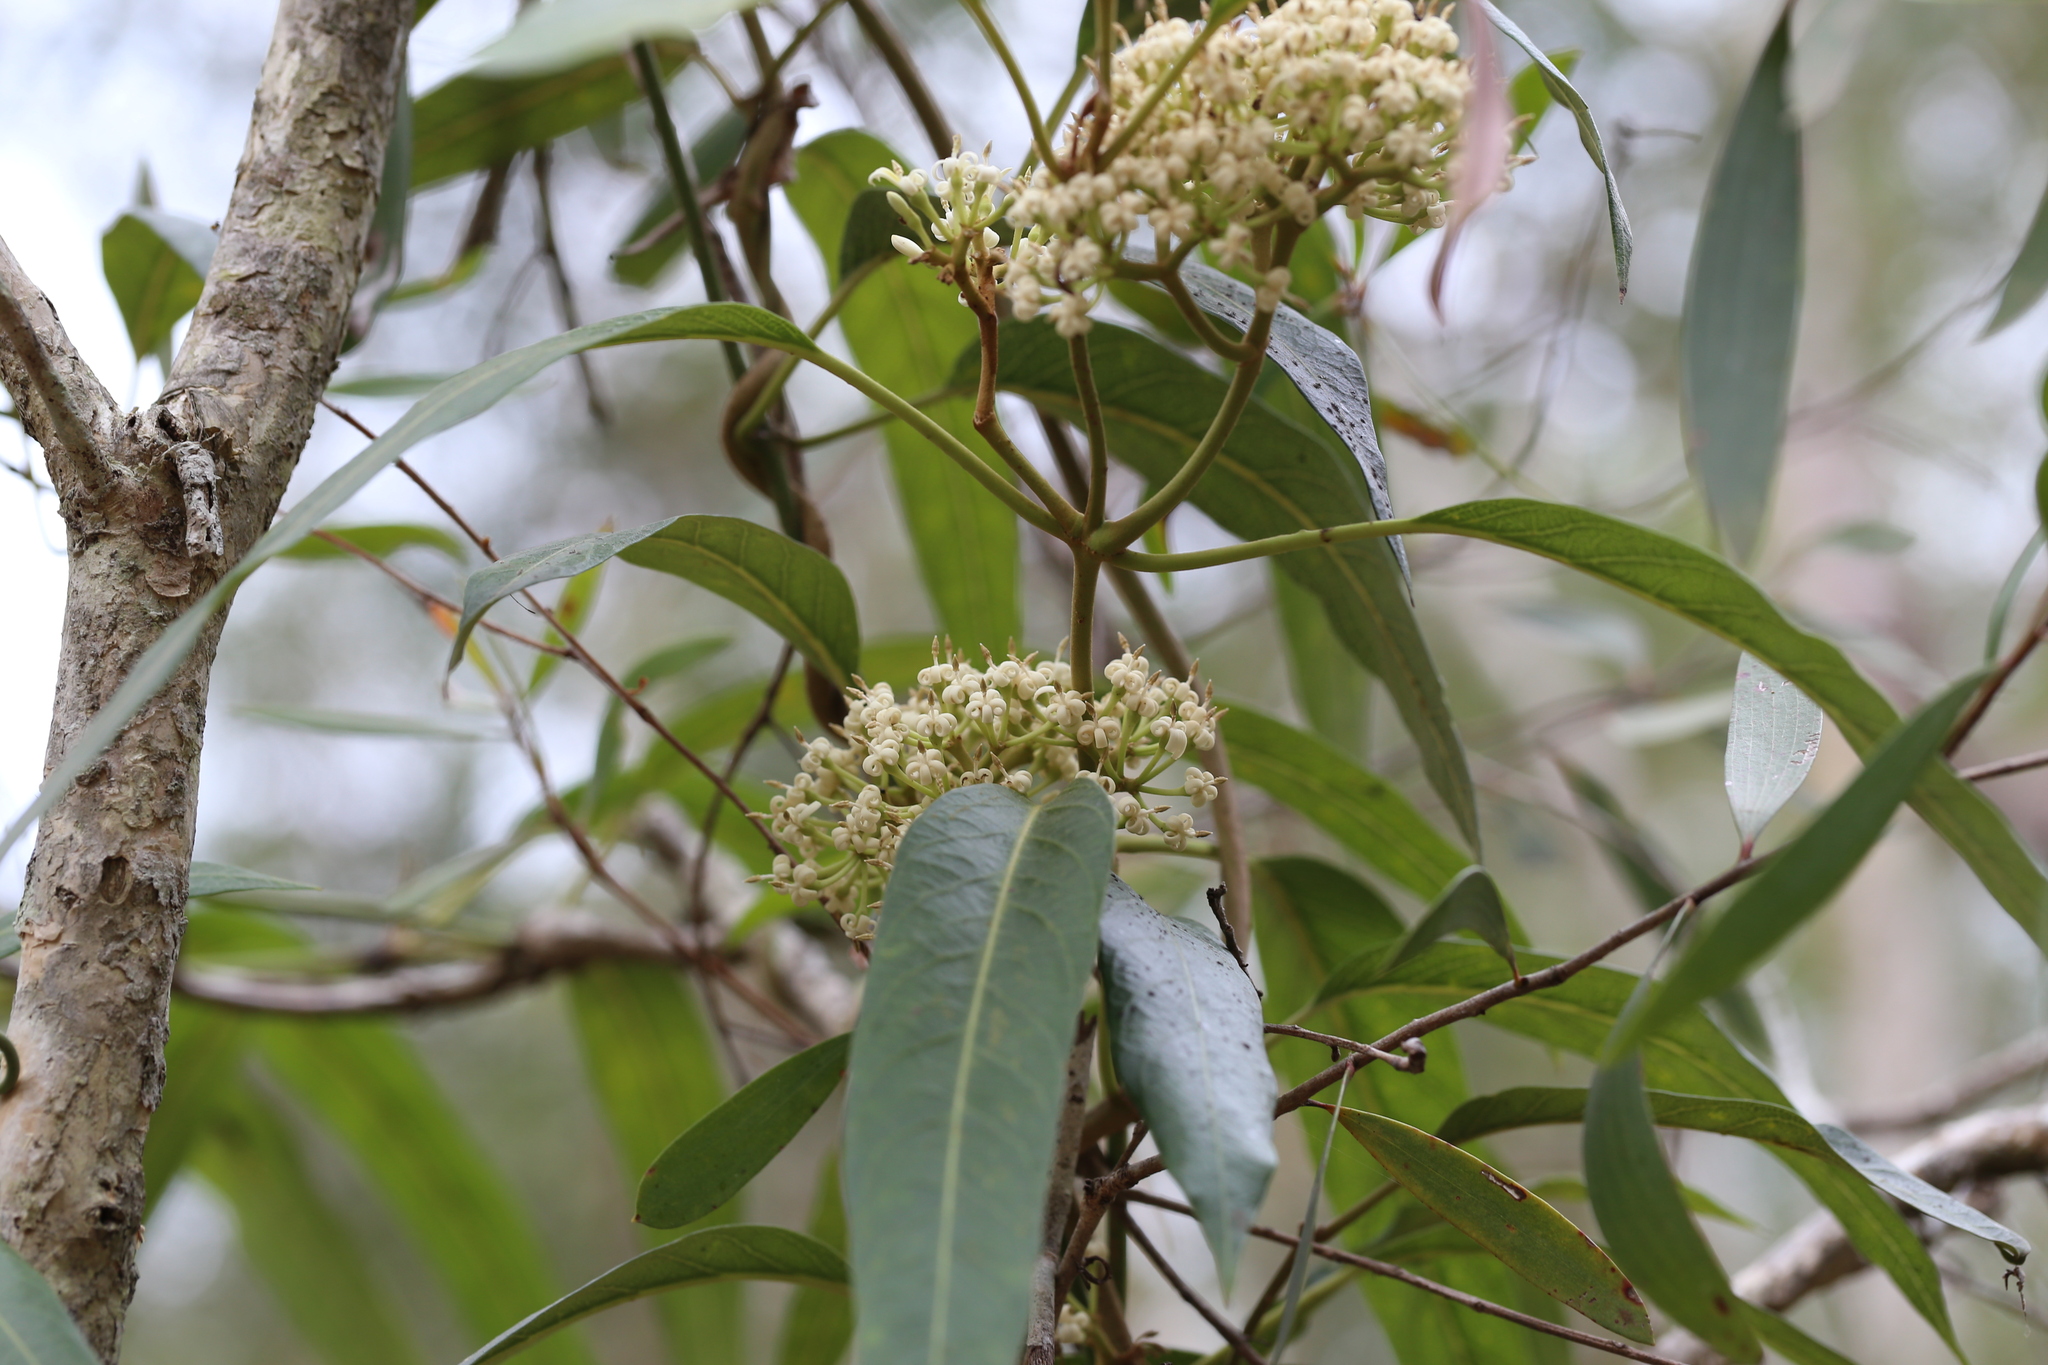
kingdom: Plantae
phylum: Tracheophyta
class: Magnoliopsida
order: Gentianales
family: Apocynaceae
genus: Parsonsia
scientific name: Parsonsia straminea
